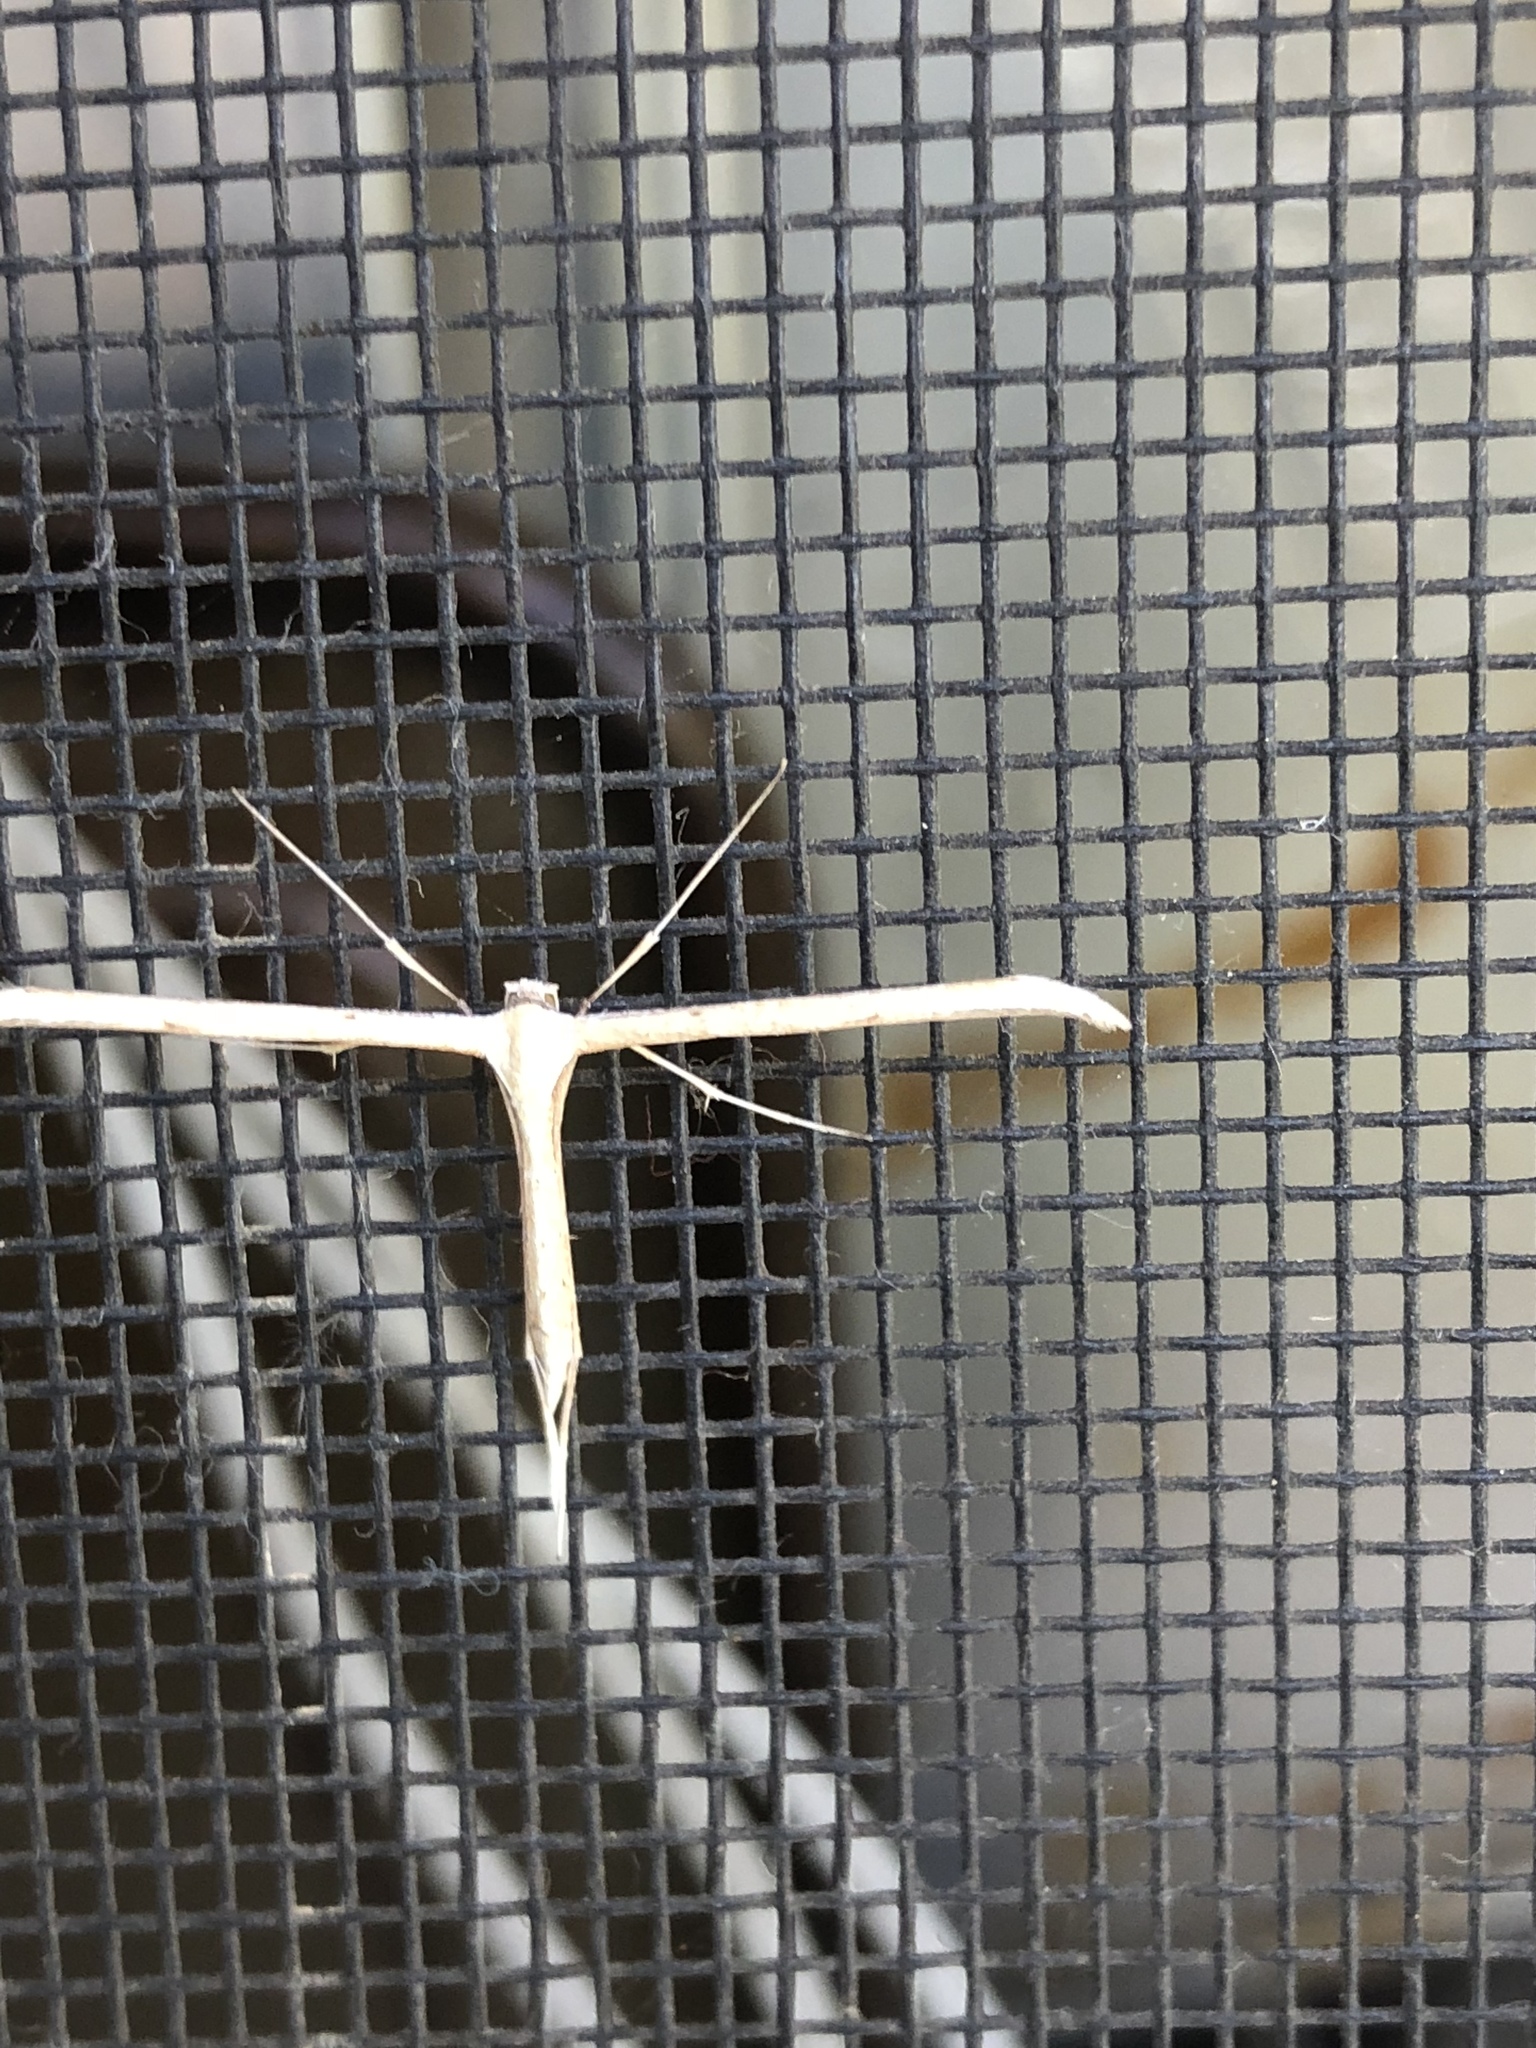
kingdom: Animalia
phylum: Arthropoda
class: Insecta
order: Lepidoptera
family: Pterophoridae
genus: Emmelina
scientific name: Emmelina monodactyla
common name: Common plume
